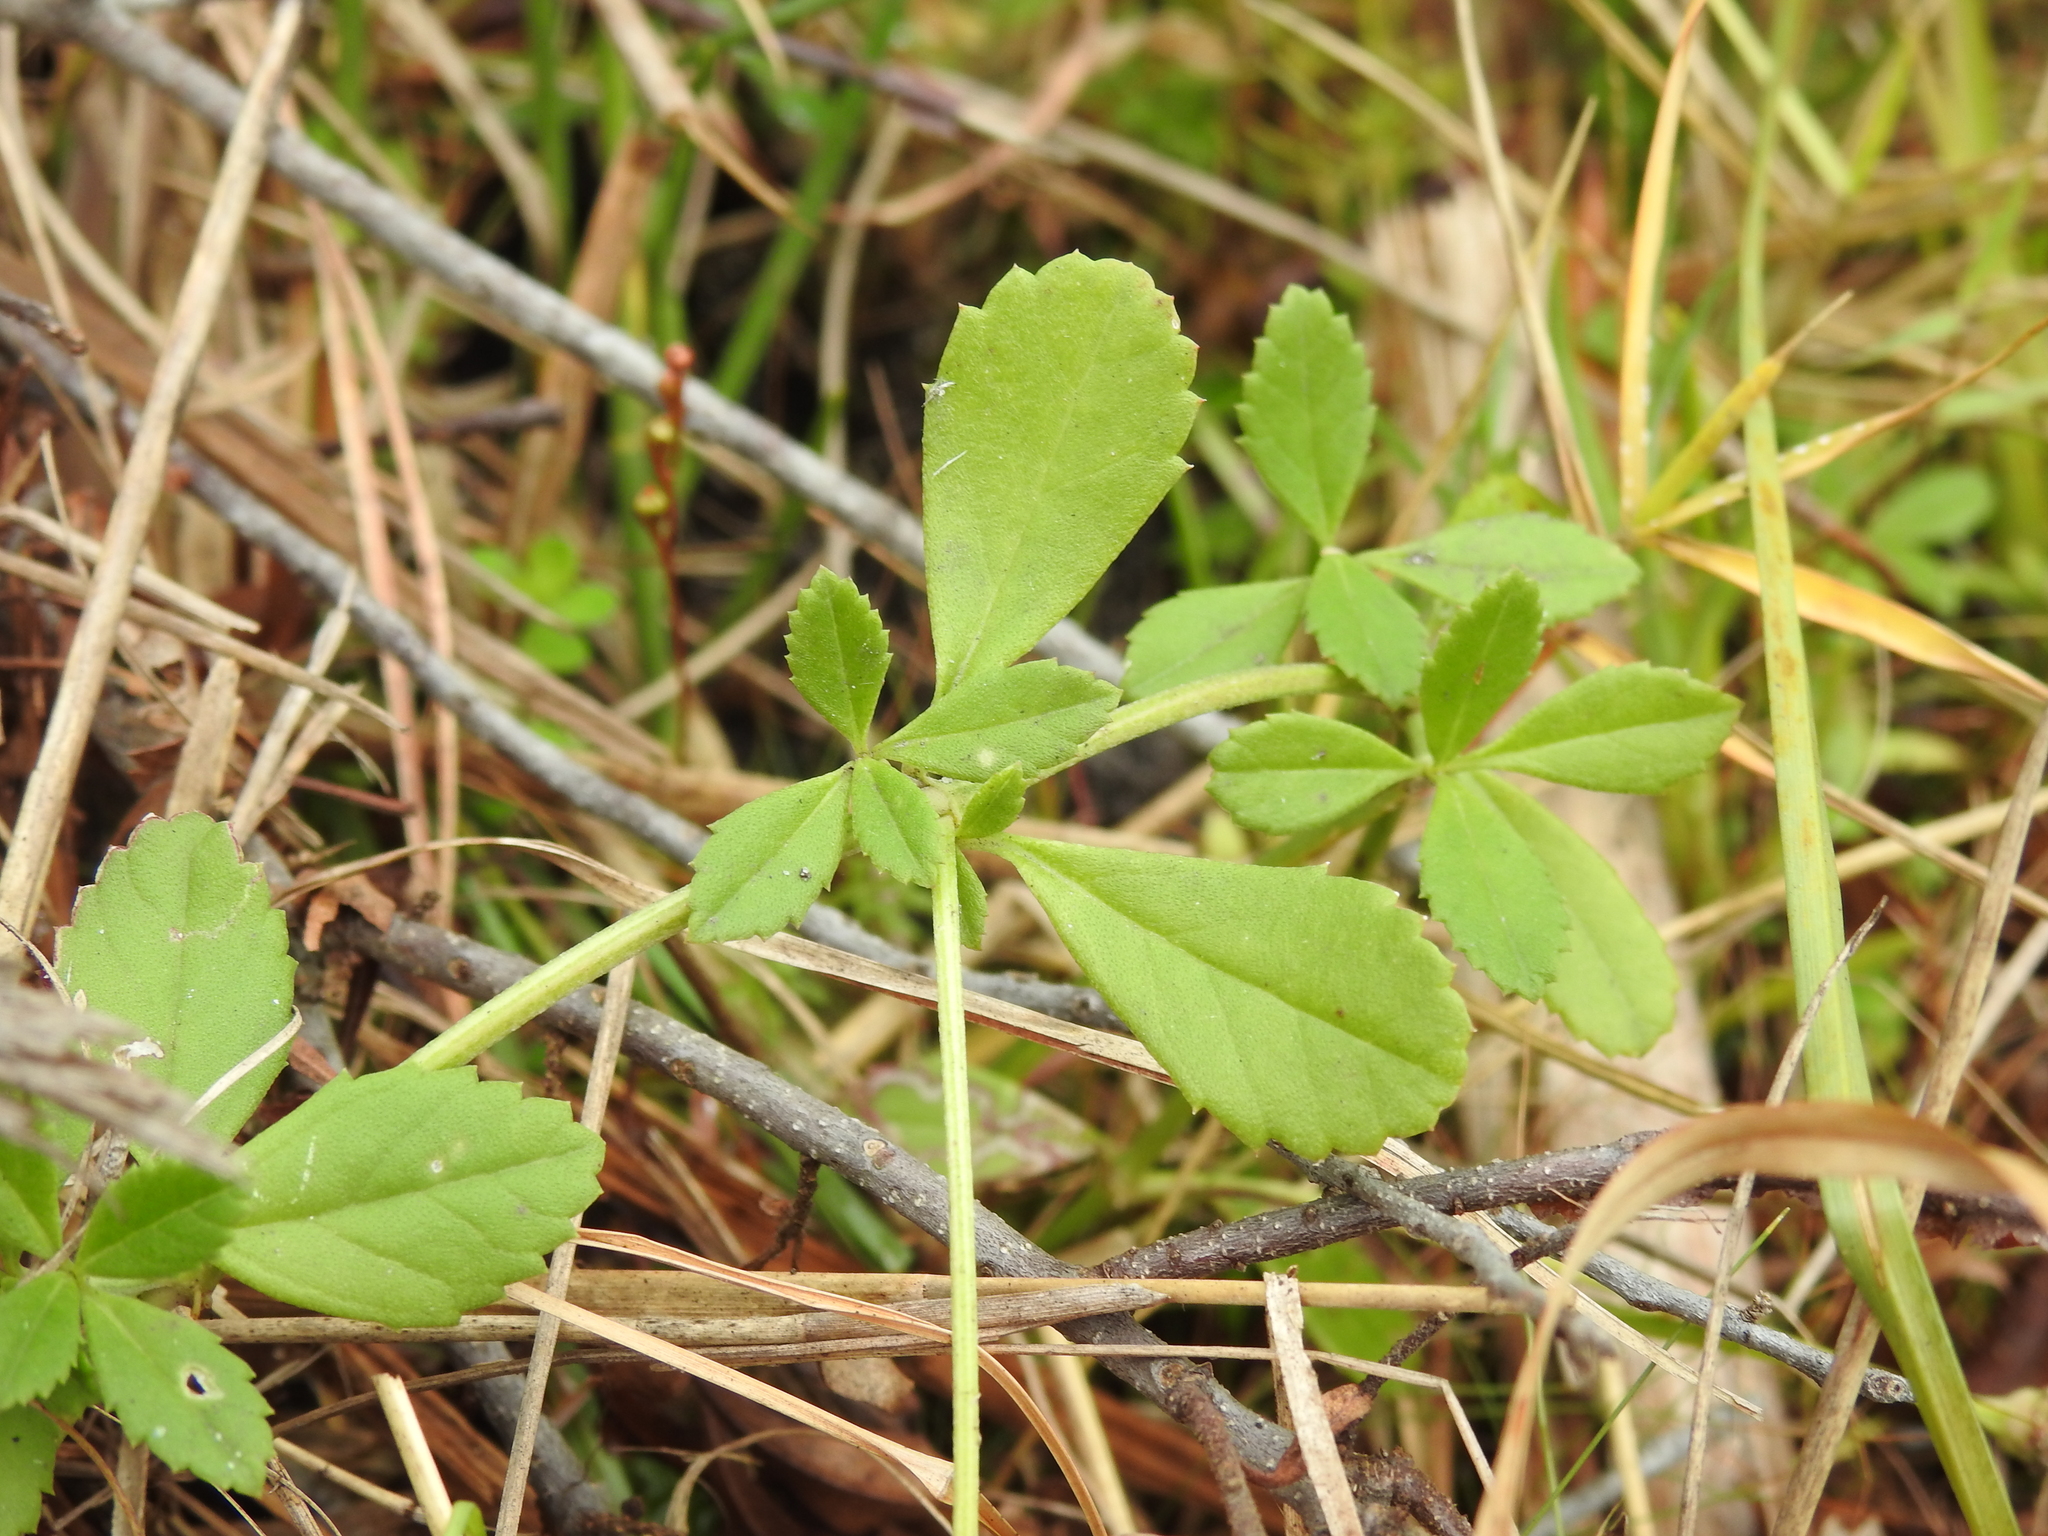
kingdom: Plantae
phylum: Tracheophyta
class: Magnoliopsida
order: Lamiales
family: Verbenaceae
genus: Phyla
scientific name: Phyla nodiflora
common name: Frogfruit
